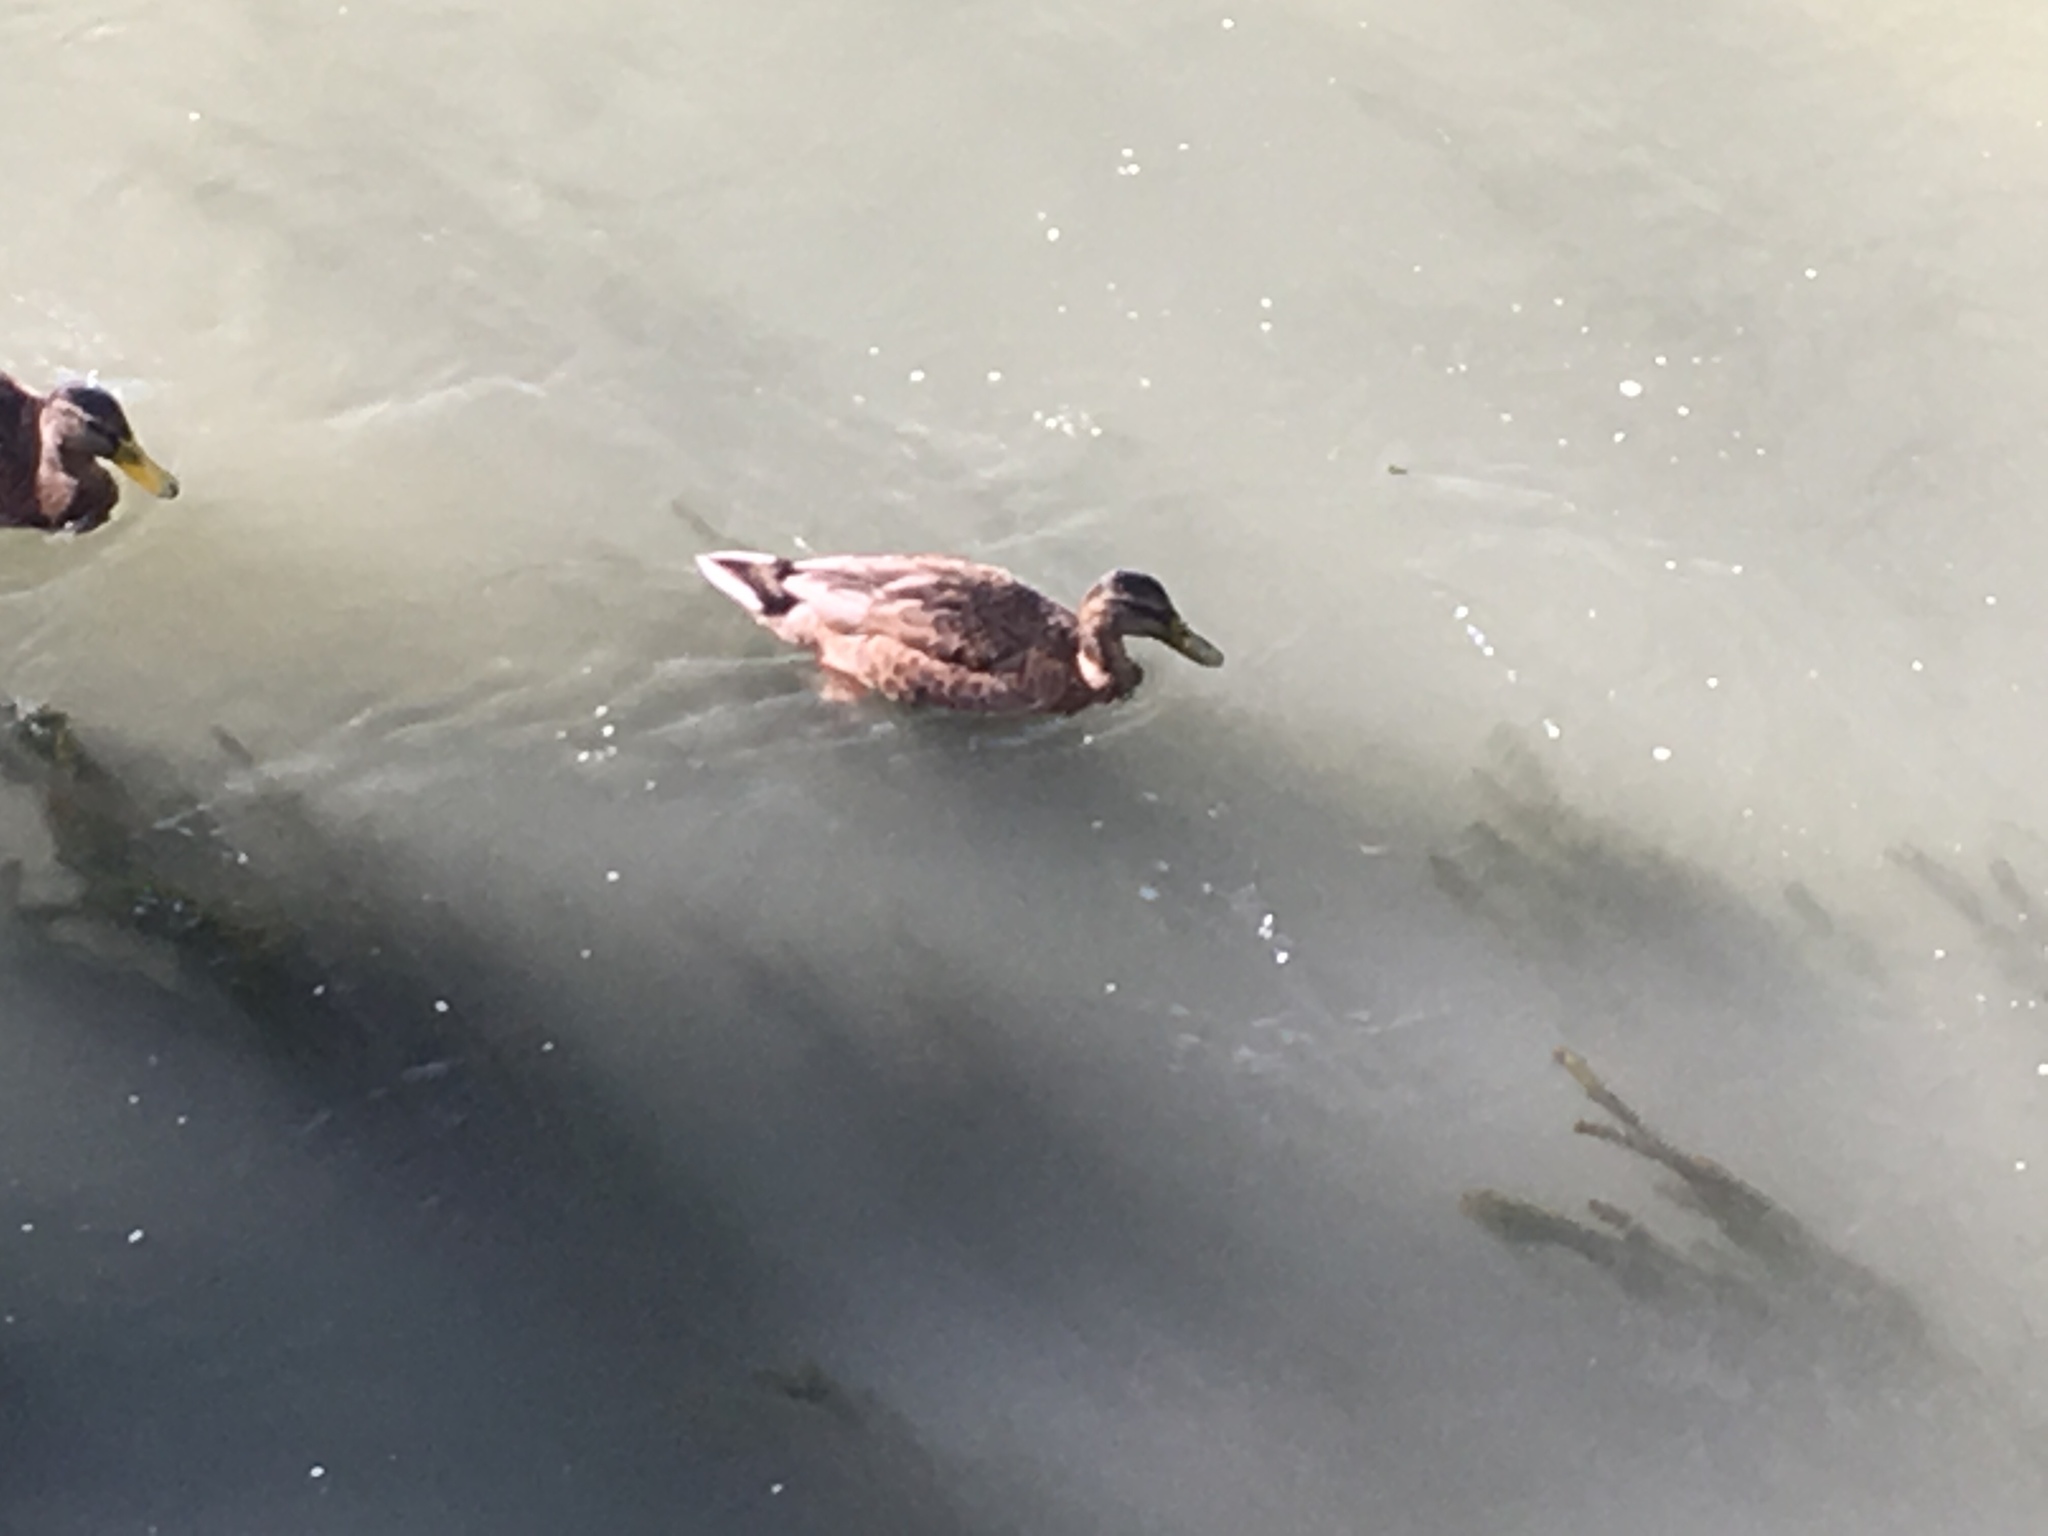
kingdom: Animalia
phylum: Chordata
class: Aves
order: Anseriformes
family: Anatidae
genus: Anas
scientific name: Anas platyrhynchos
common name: Mallard
